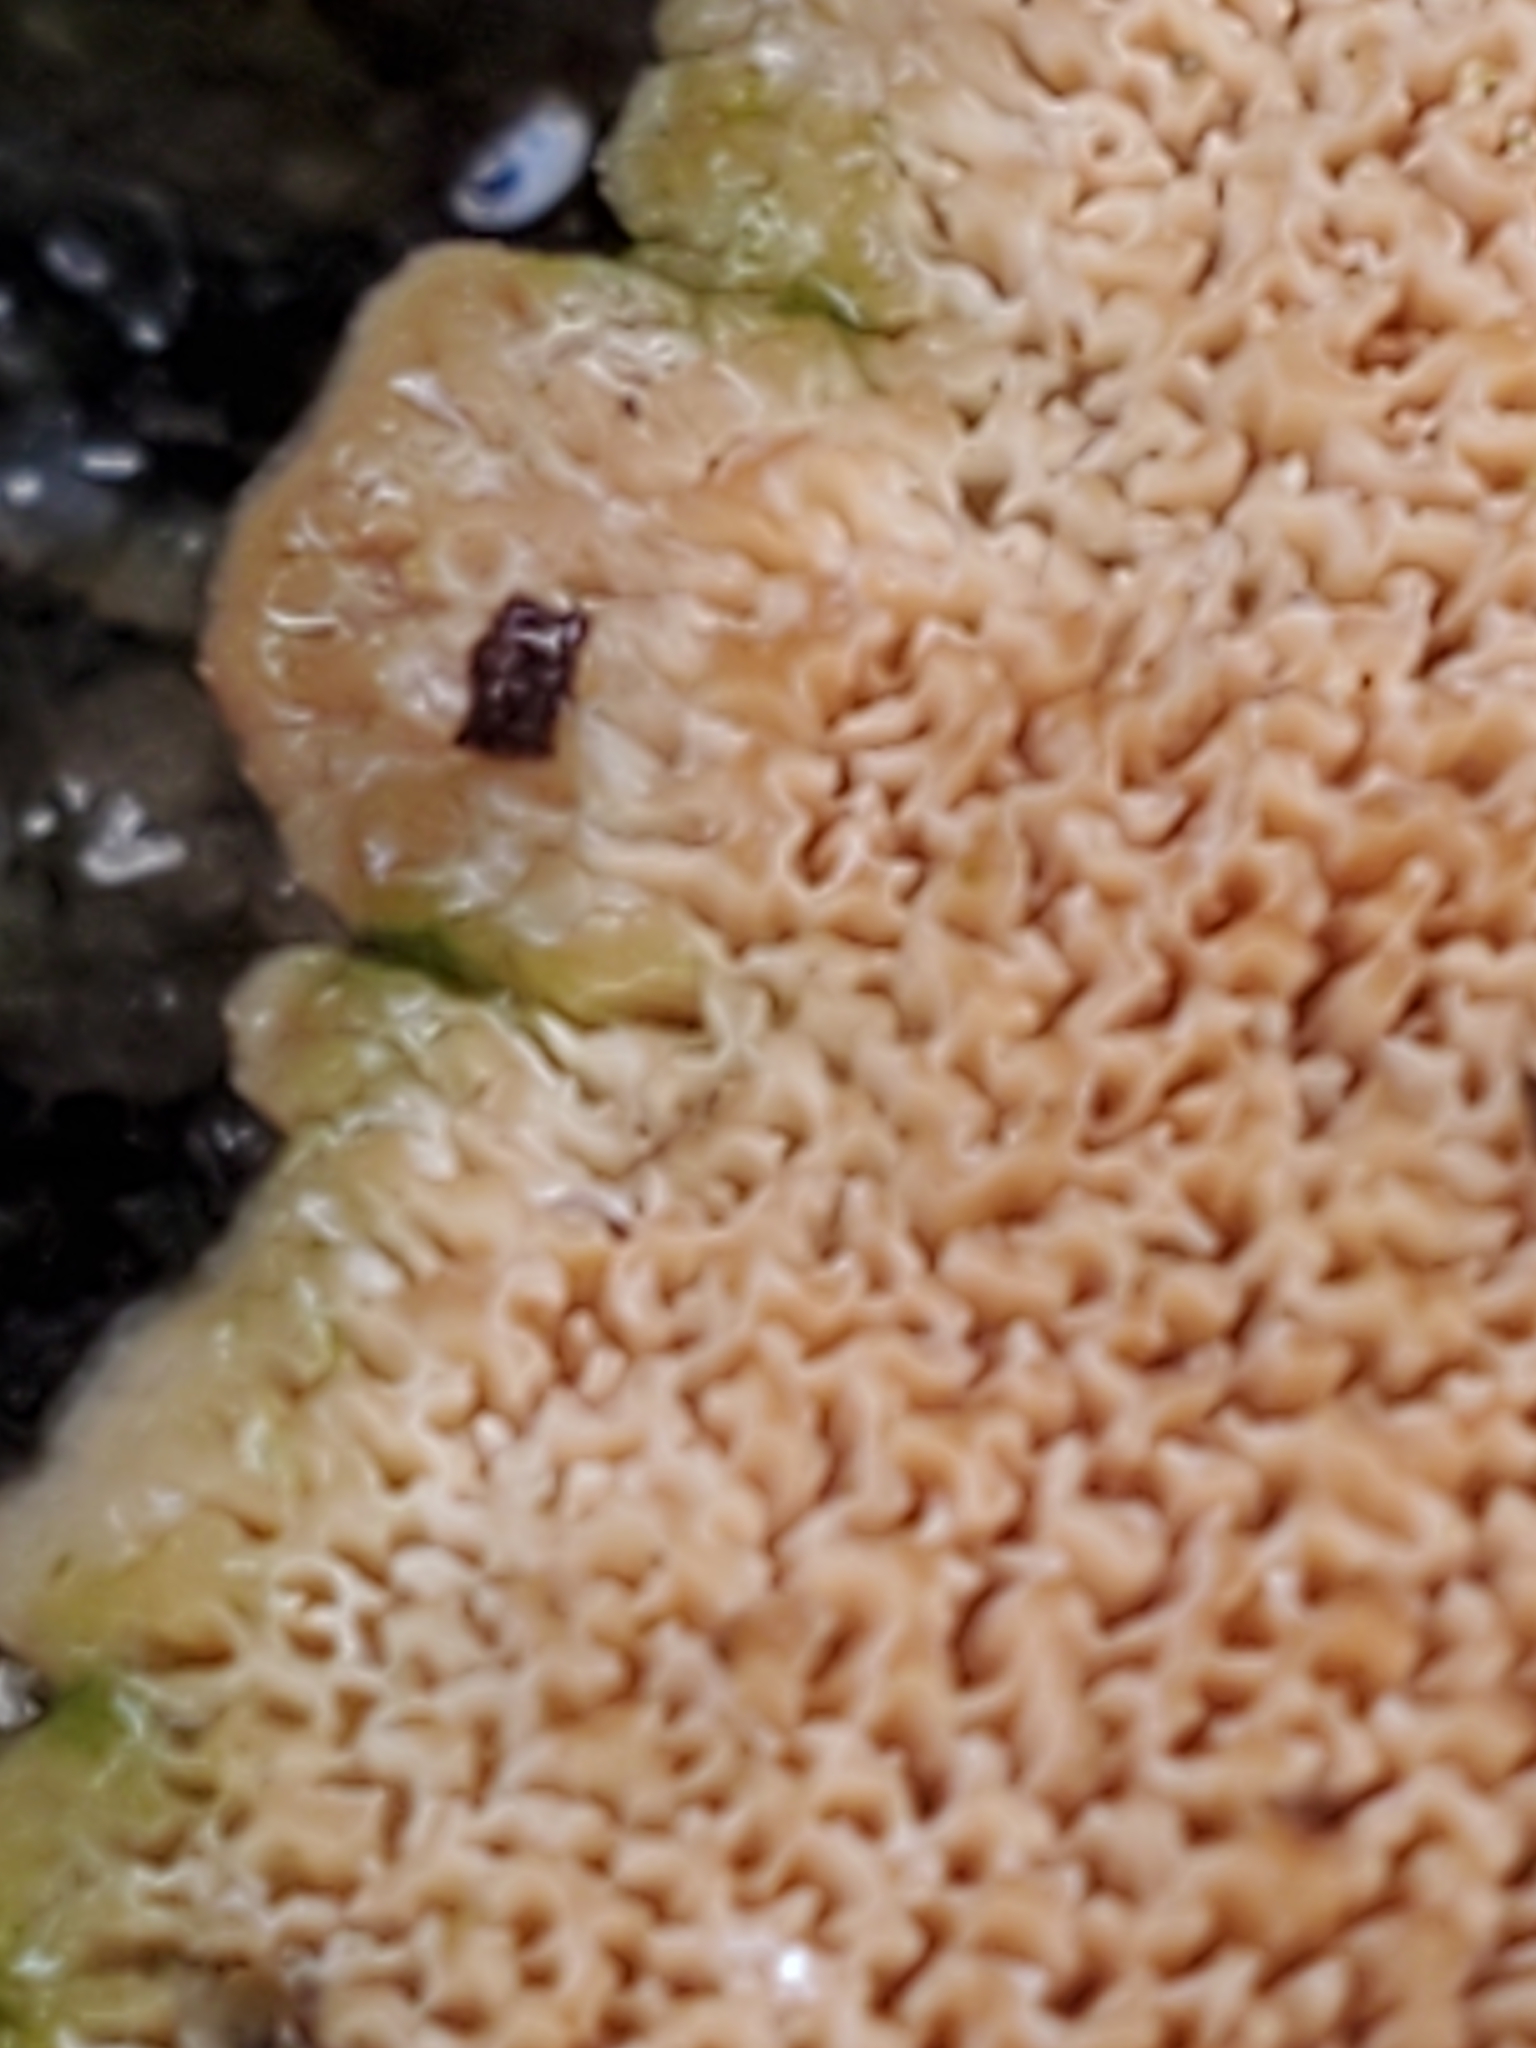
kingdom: Fungi
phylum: Basidiomycota
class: Agaricomycetes
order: Hymenochaetales
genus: Trichaptum
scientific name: Trichaptum biforme
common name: Violet-toothed polypore
